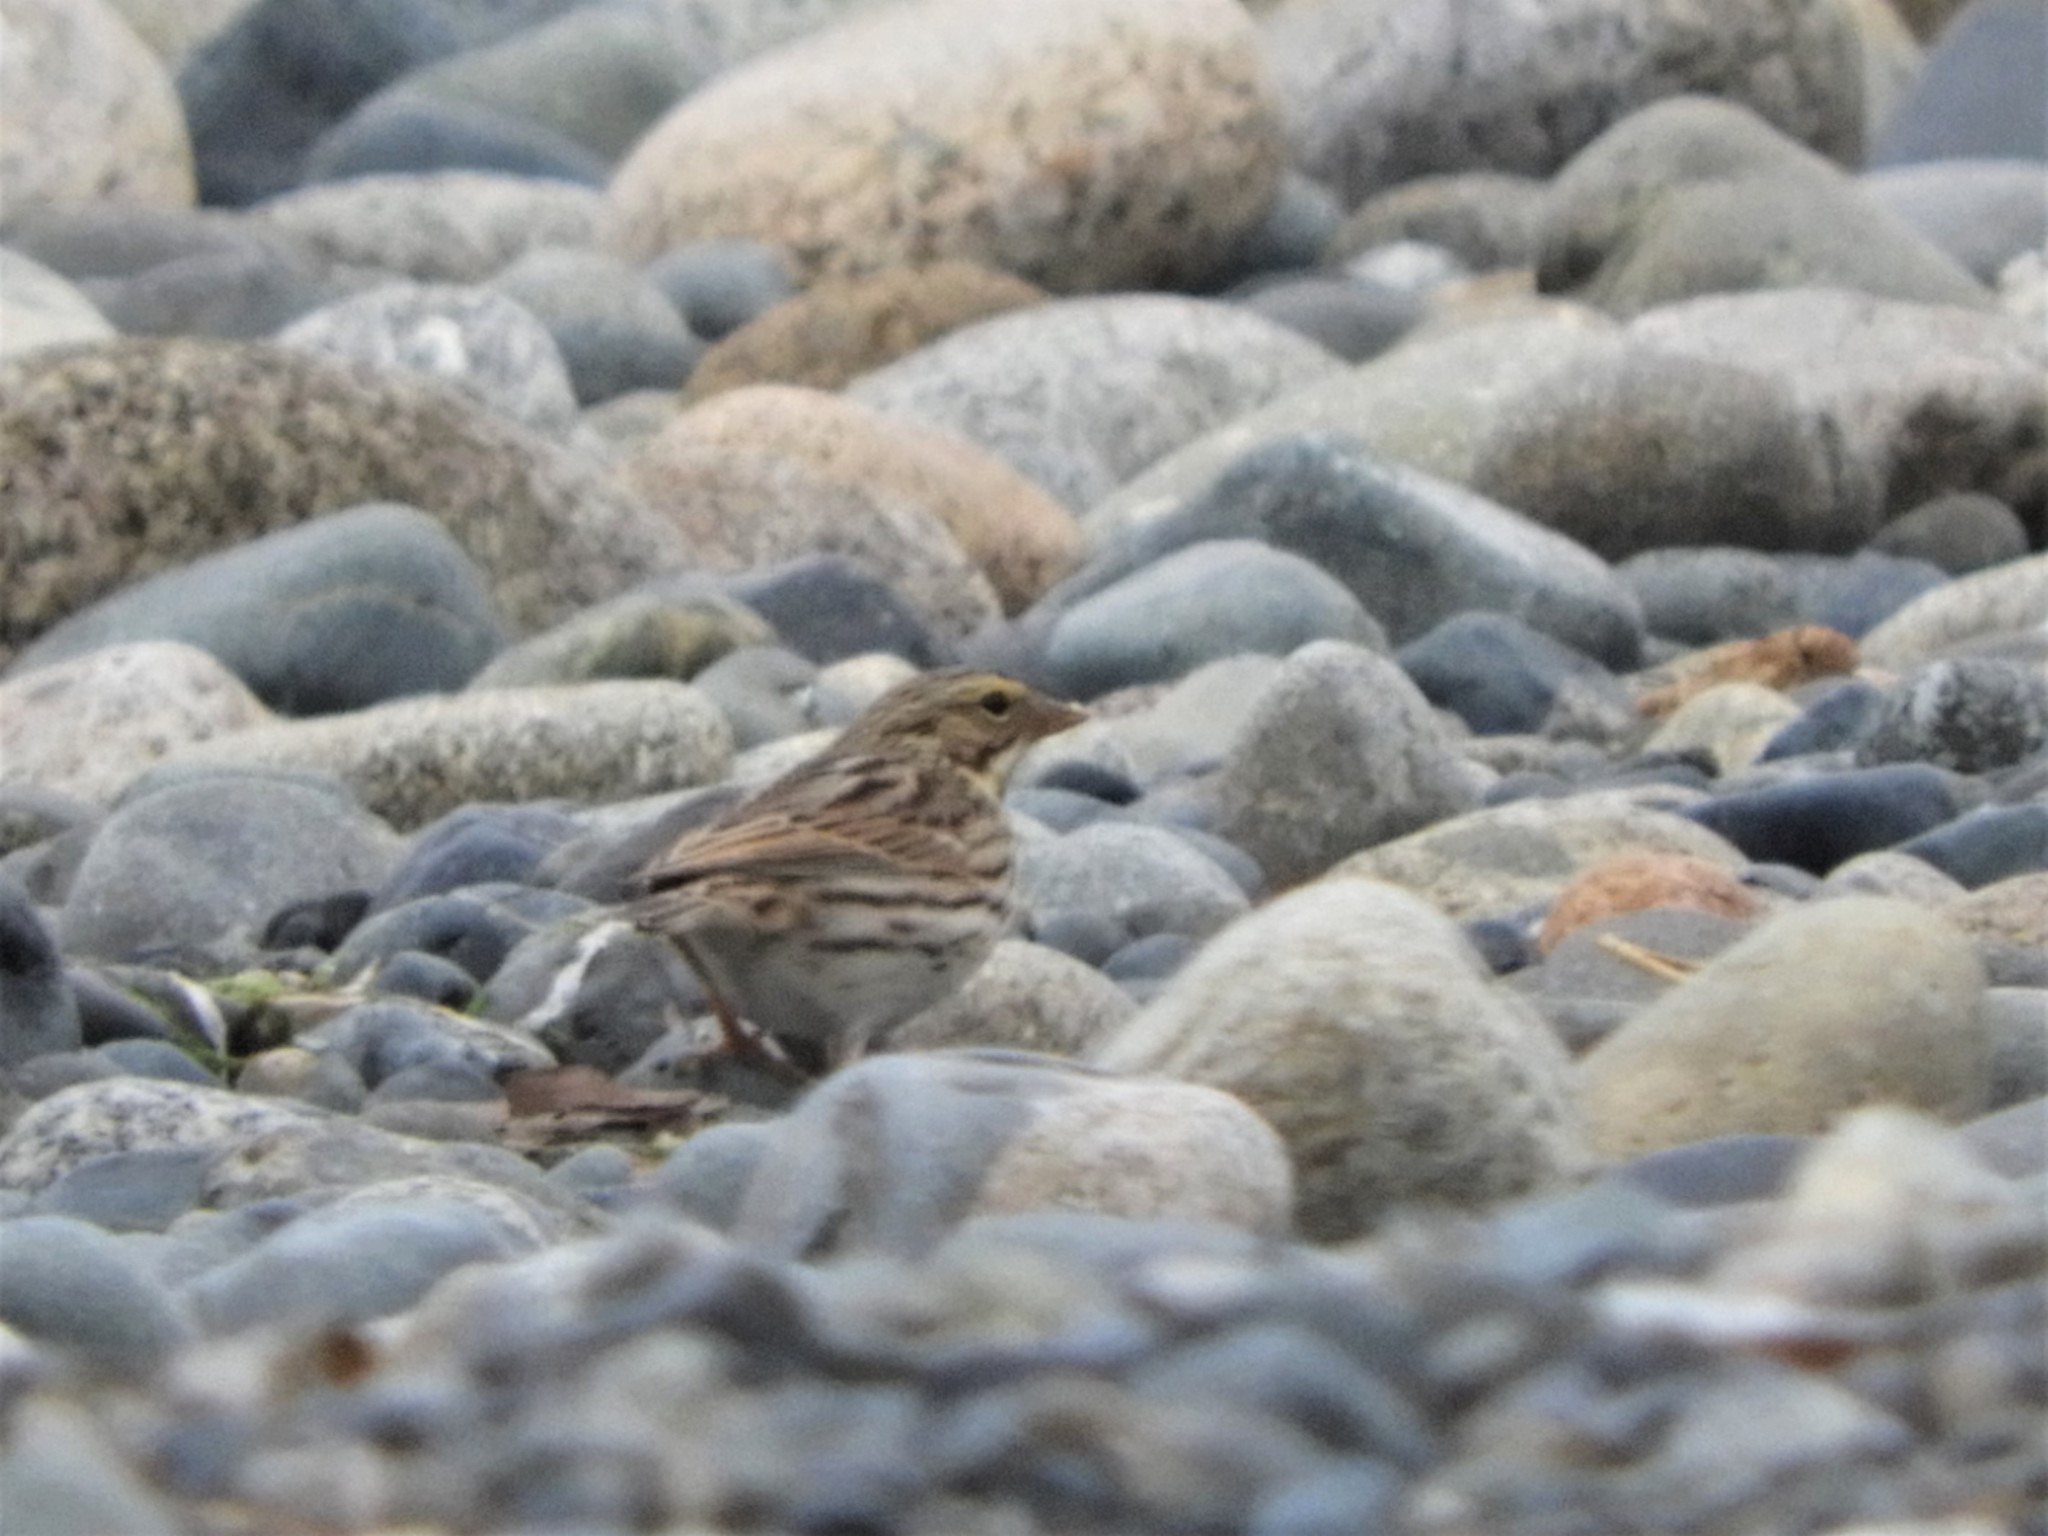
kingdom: Animalia
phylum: Chordata
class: Aves
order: Passeriformes
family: Passerellidae
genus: Passerculus
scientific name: Passerculus sandwichensis
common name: Savannah sparrow
